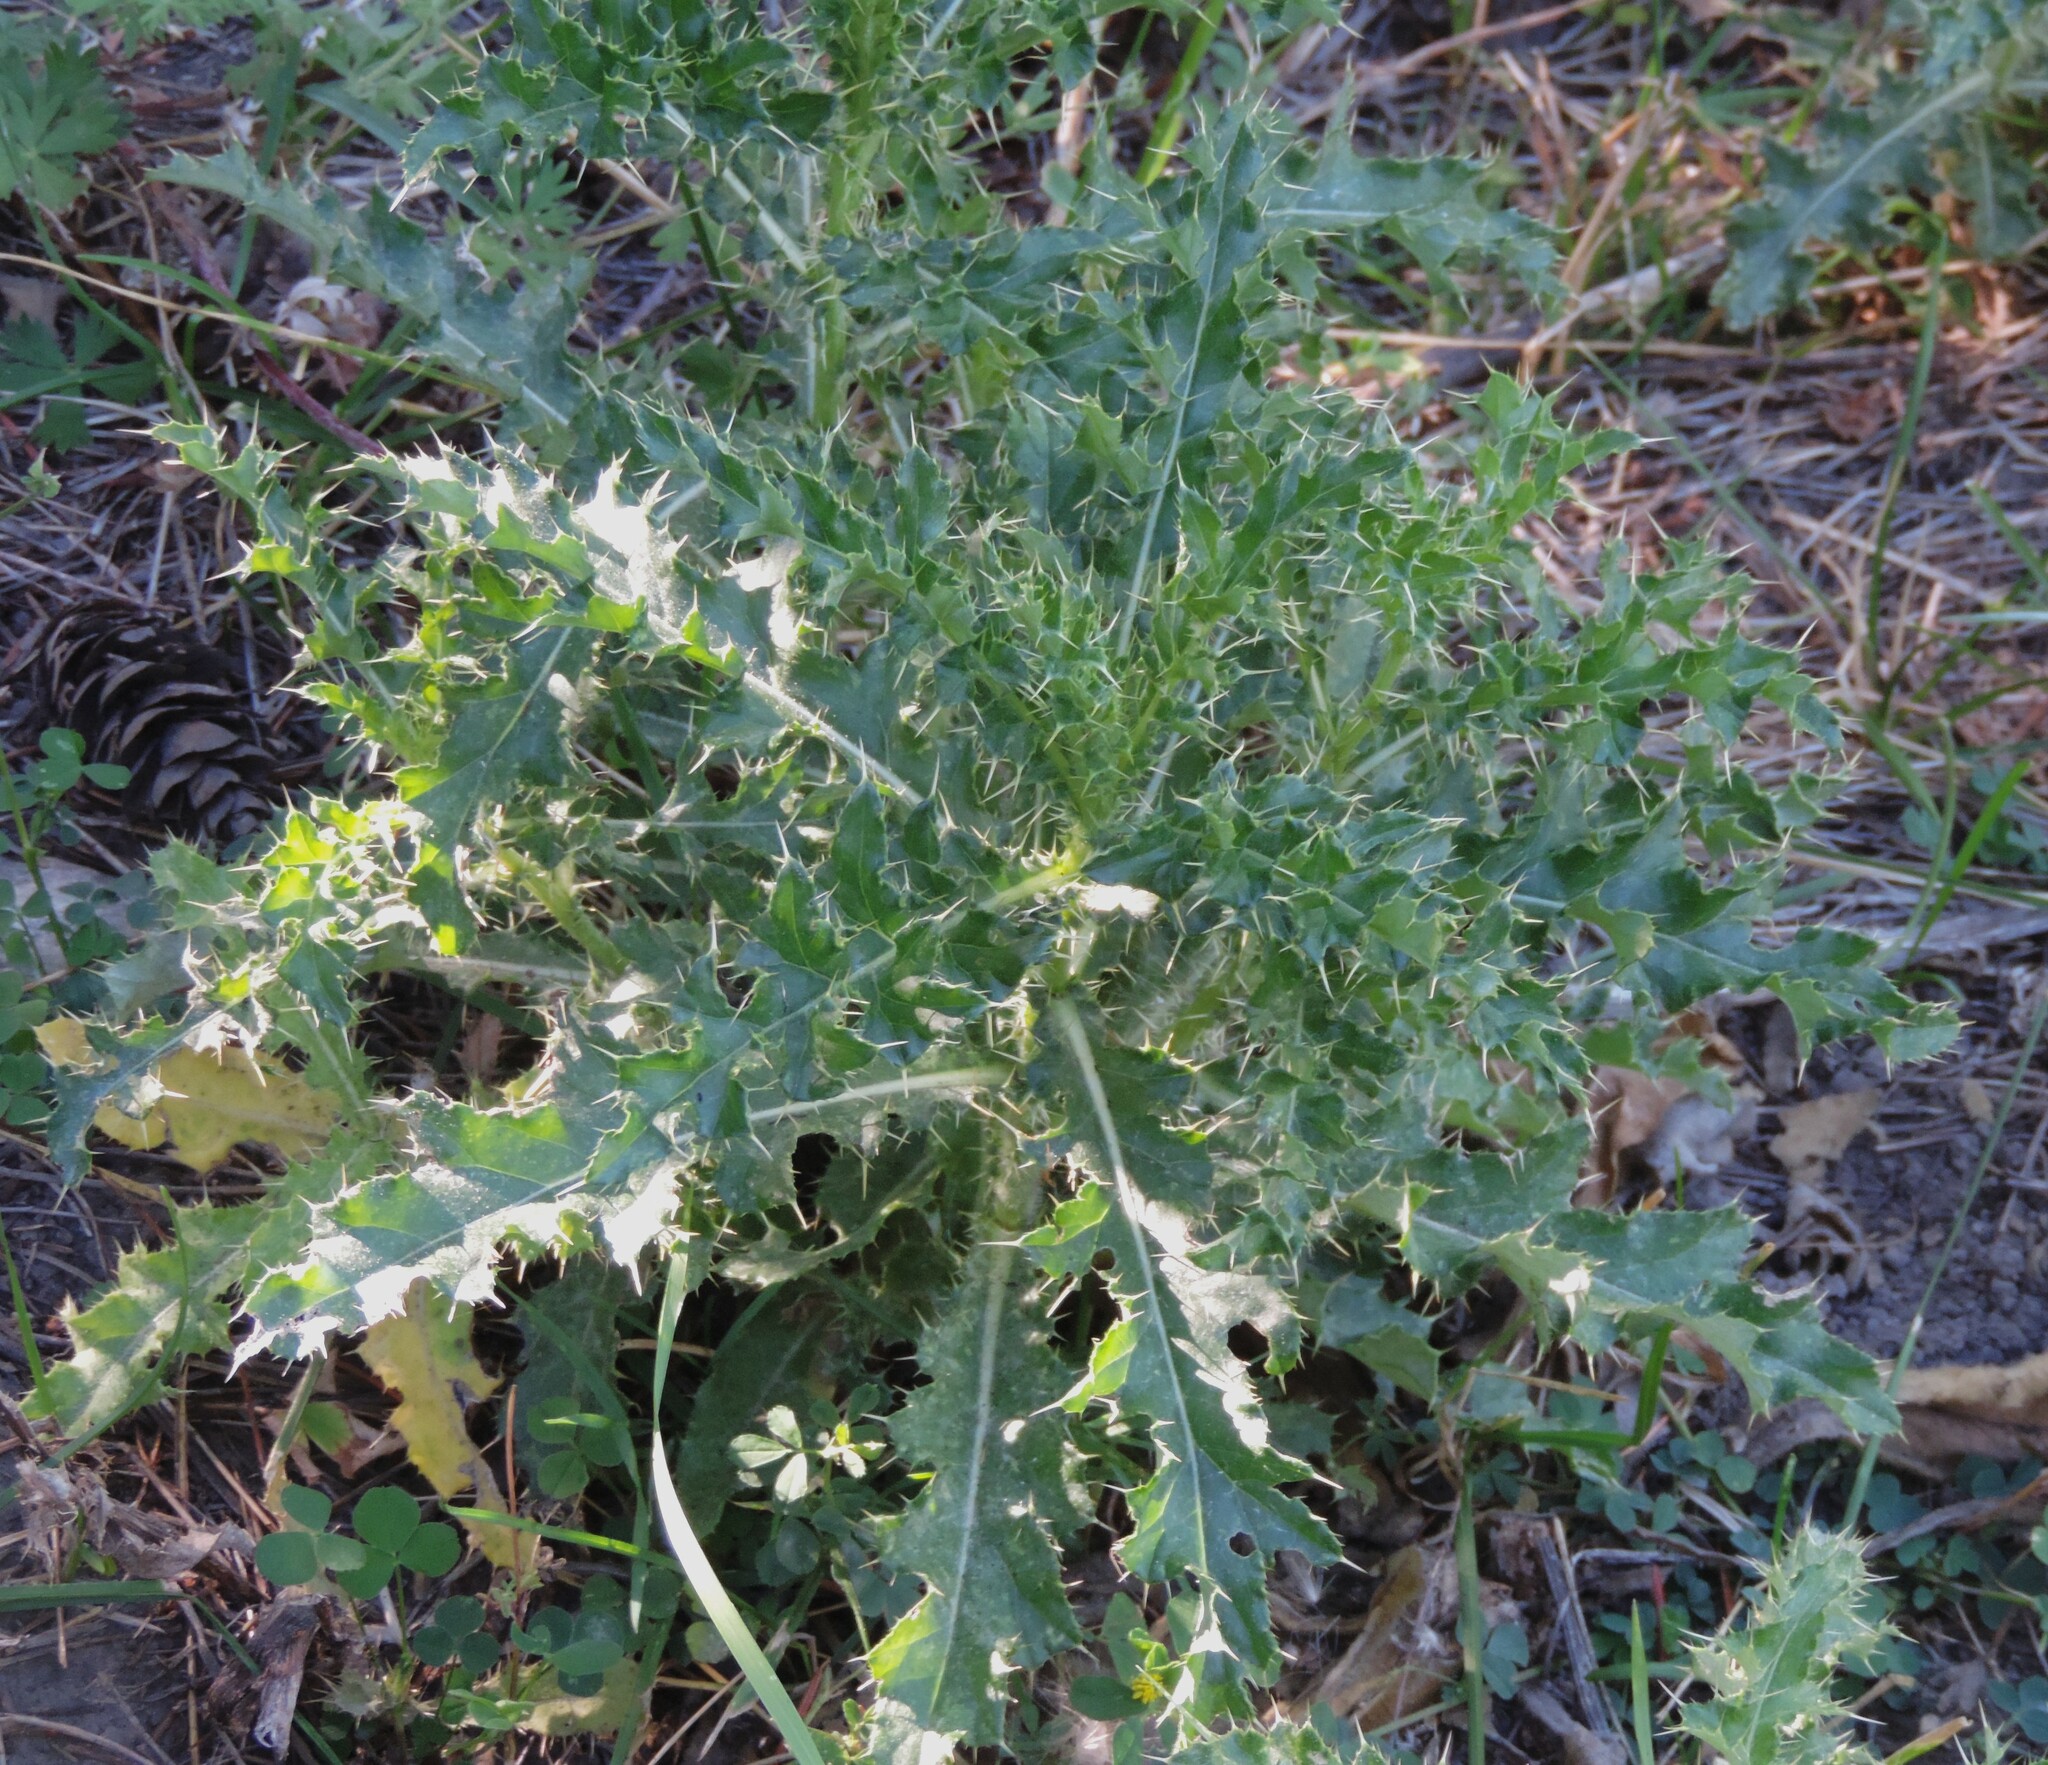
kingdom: Plantae
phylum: Tracheophyta
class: Magnoliopsida
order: Asterales
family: Asteraceae
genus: Cirsium
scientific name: Cirsium arvense
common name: Creeping thistle
